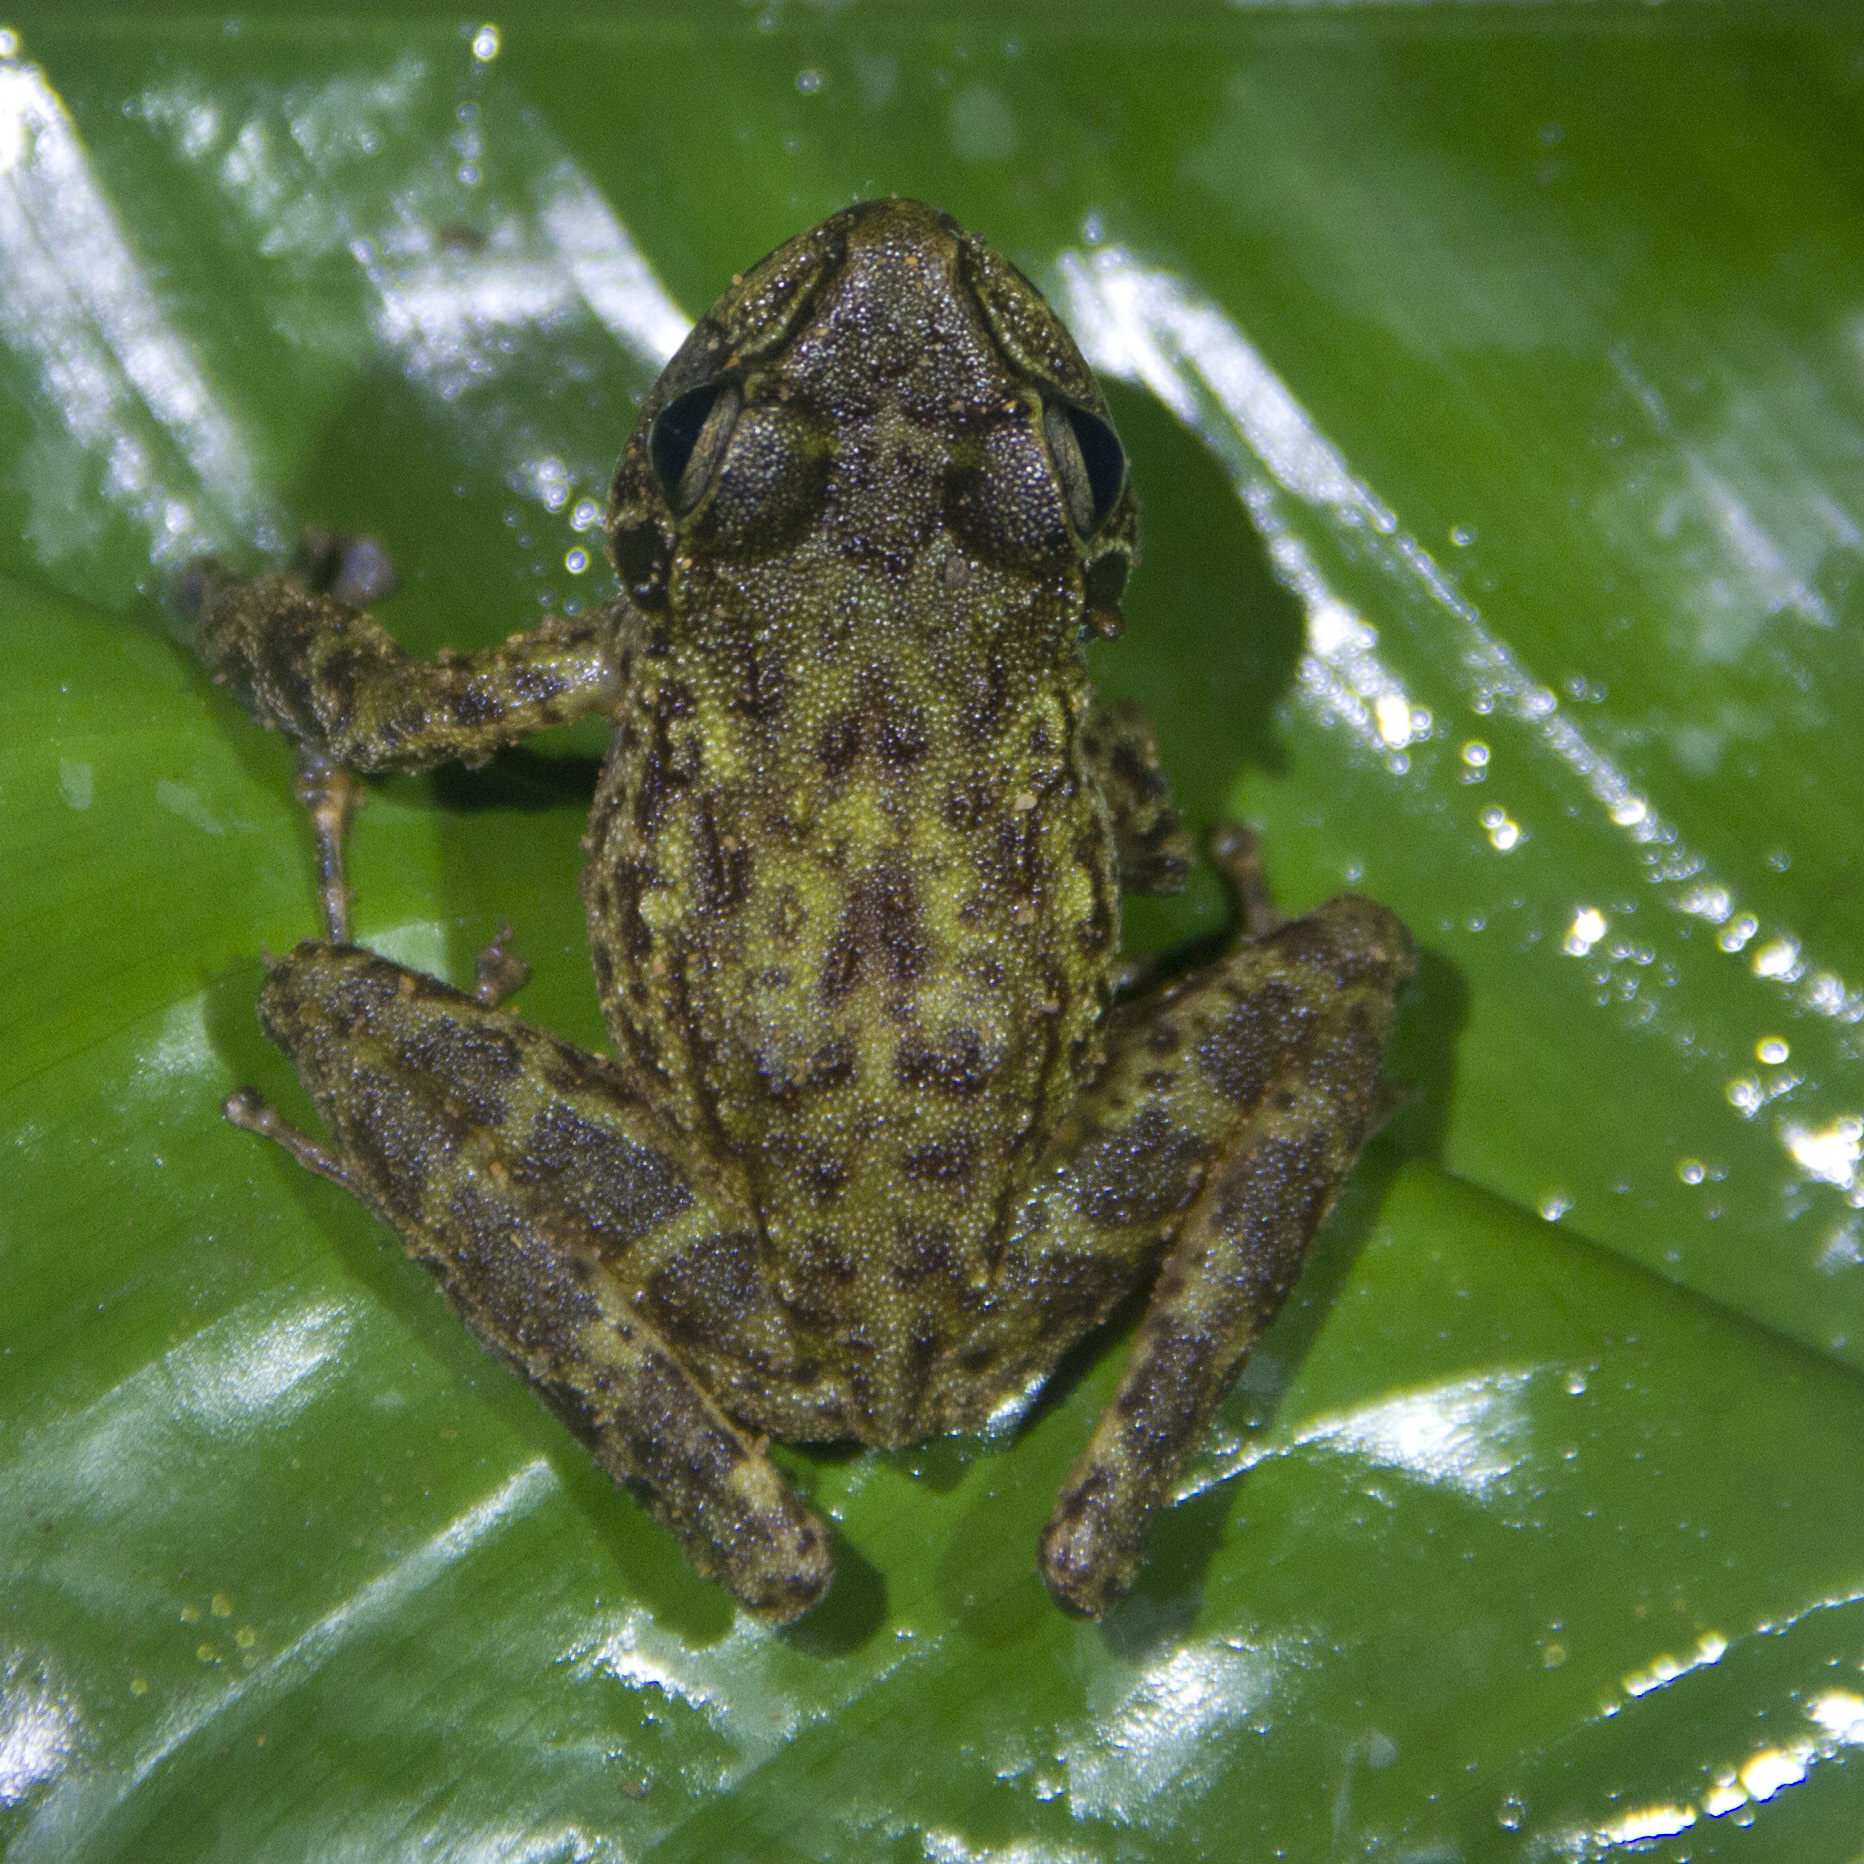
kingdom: Animalia
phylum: Chordata
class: Amphibia
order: Anura
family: Petropedetidae
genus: Petropedetes
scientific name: Petropedetes johnstoni
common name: Johnston's water frog
